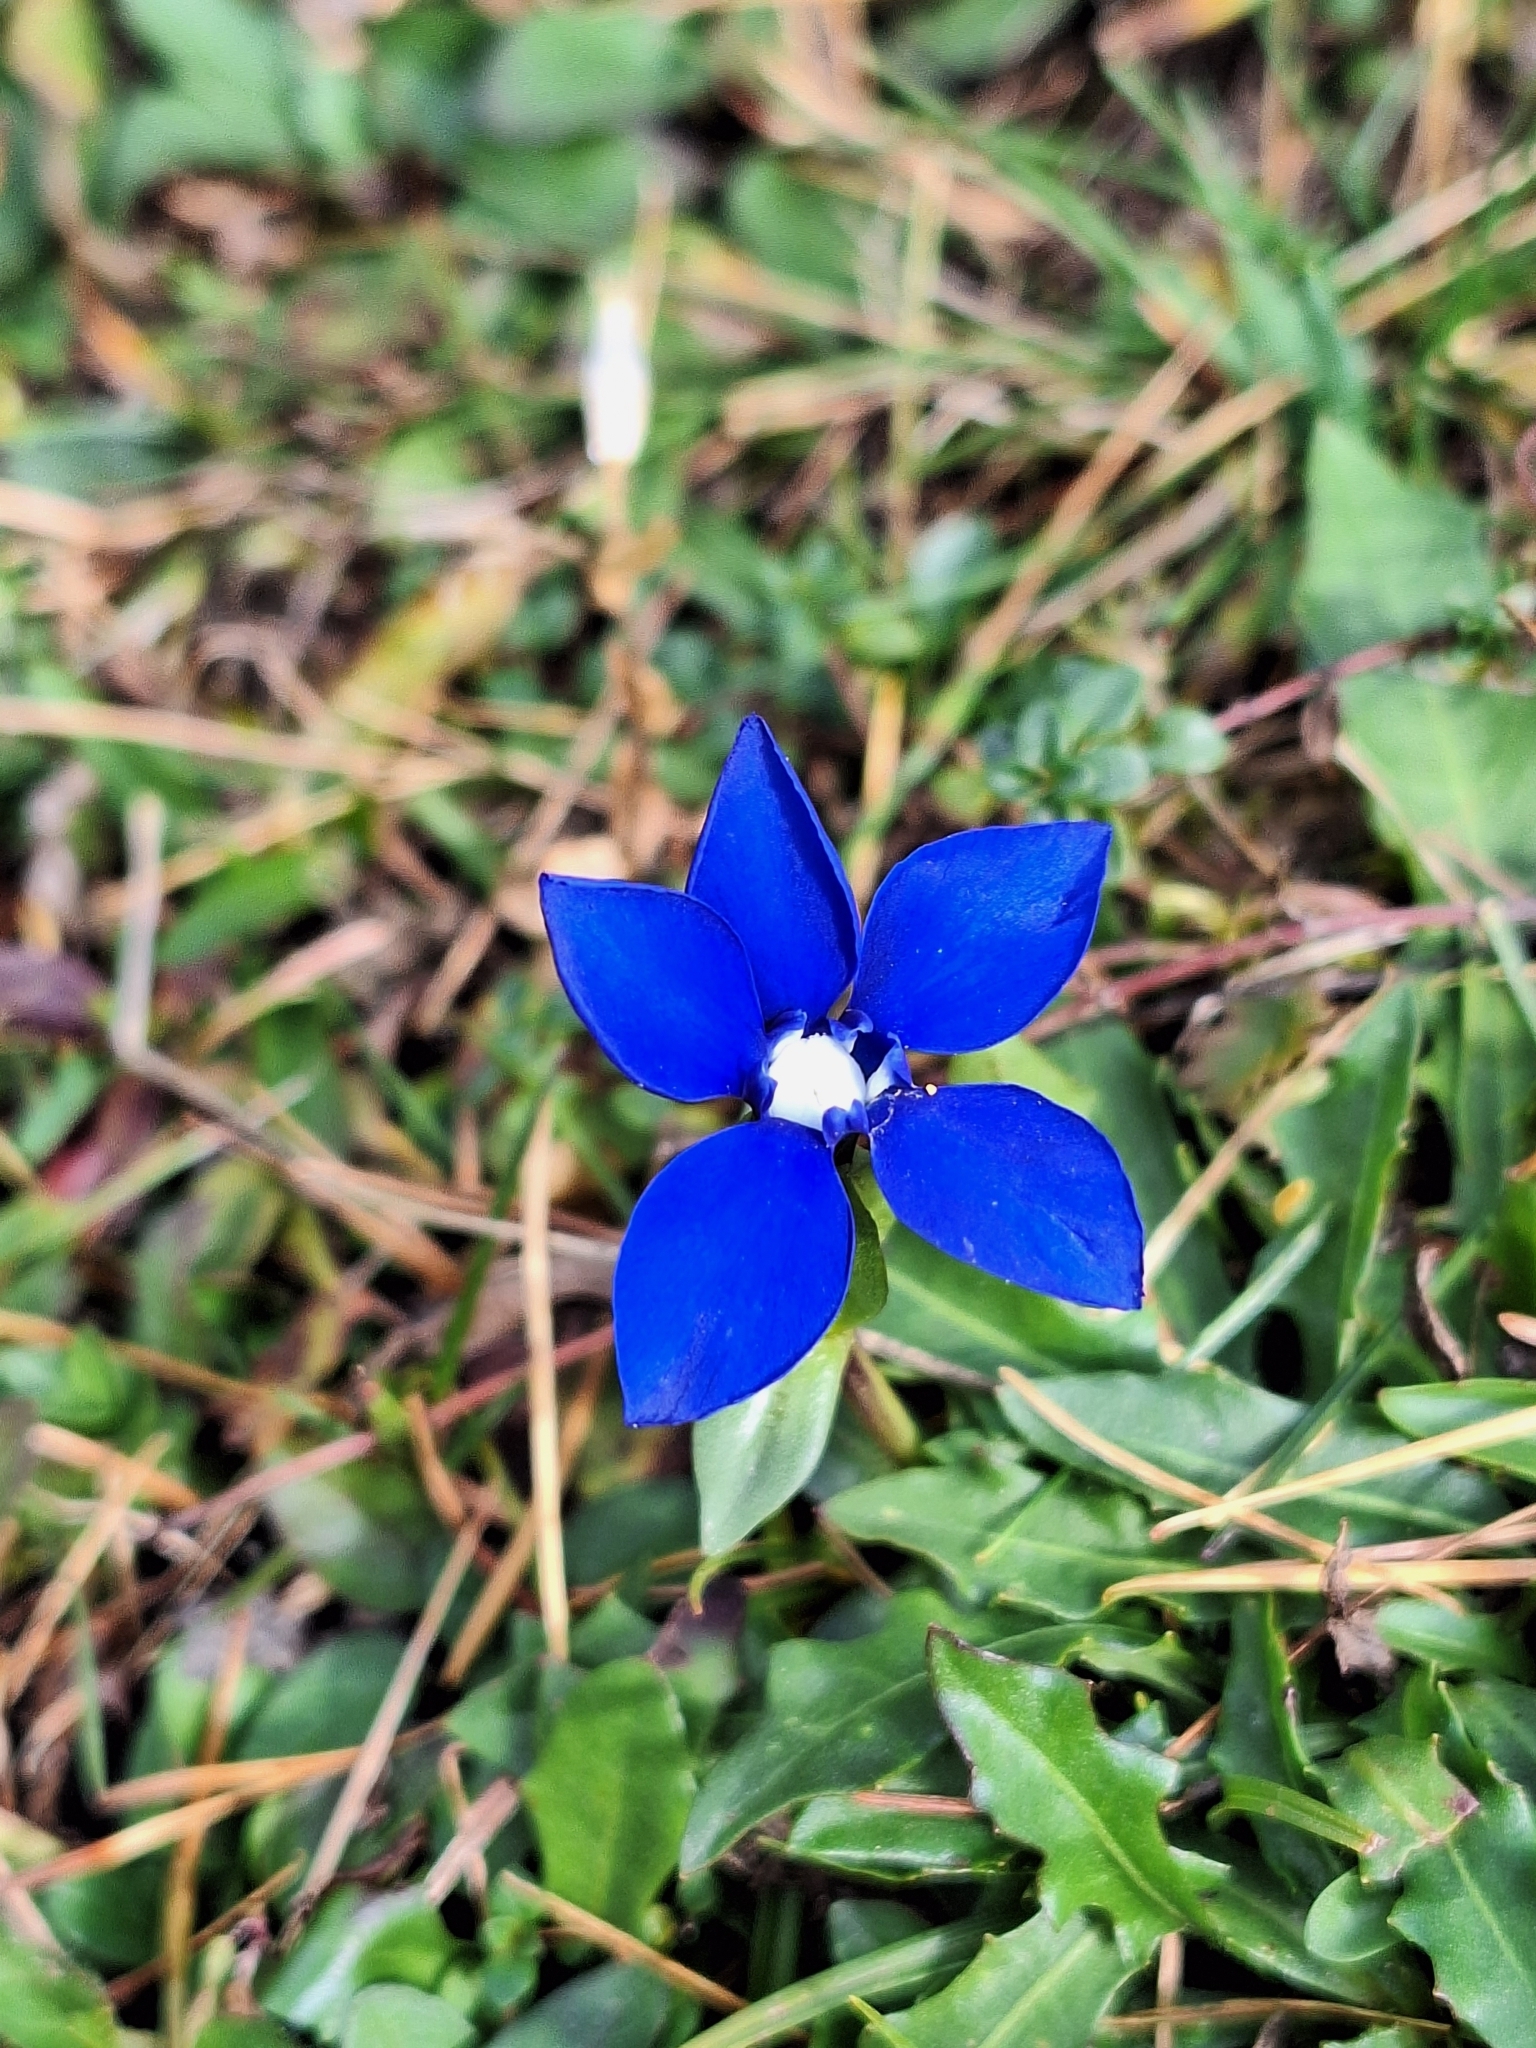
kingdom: Plantae
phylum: Tracheophyta
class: Magnoliopsida
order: Gentianales
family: Gentianaceae
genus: Gentiana
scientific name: Gentiana verna
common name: Spring gentian
